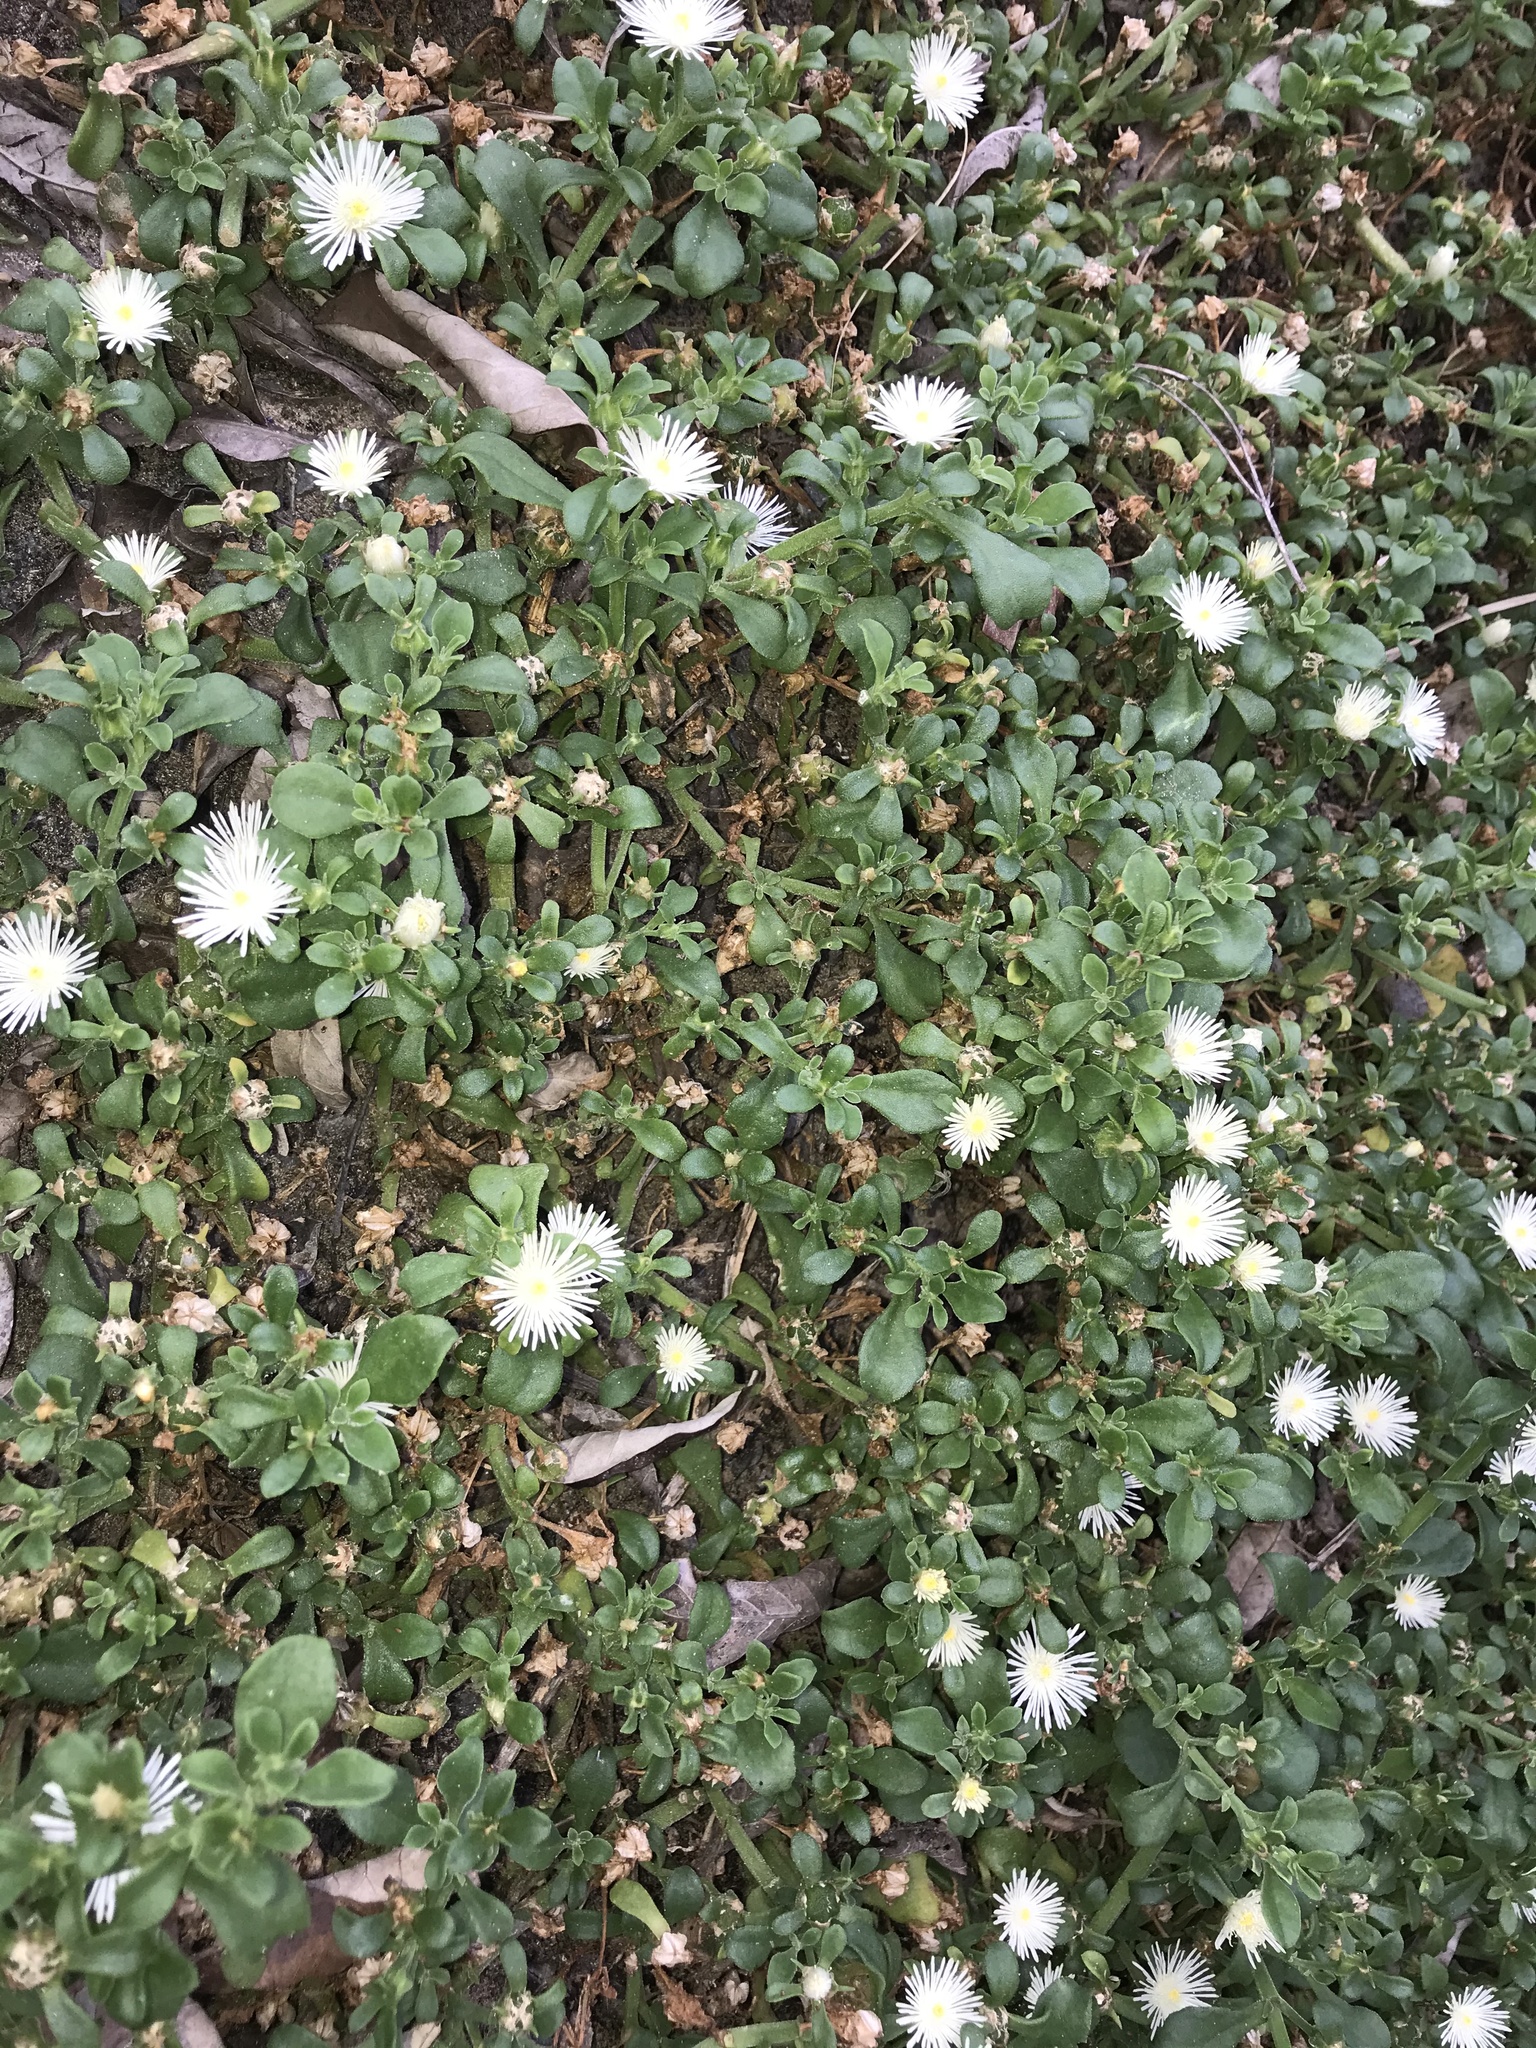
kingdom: Plantae
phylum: Tracheophyta
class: Magnoliopsida
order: Caryophyllales
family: Aizoaceae
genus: Mesembryanthemum
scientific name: Mesembryanthemum aitonis
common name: Angled iceplant
